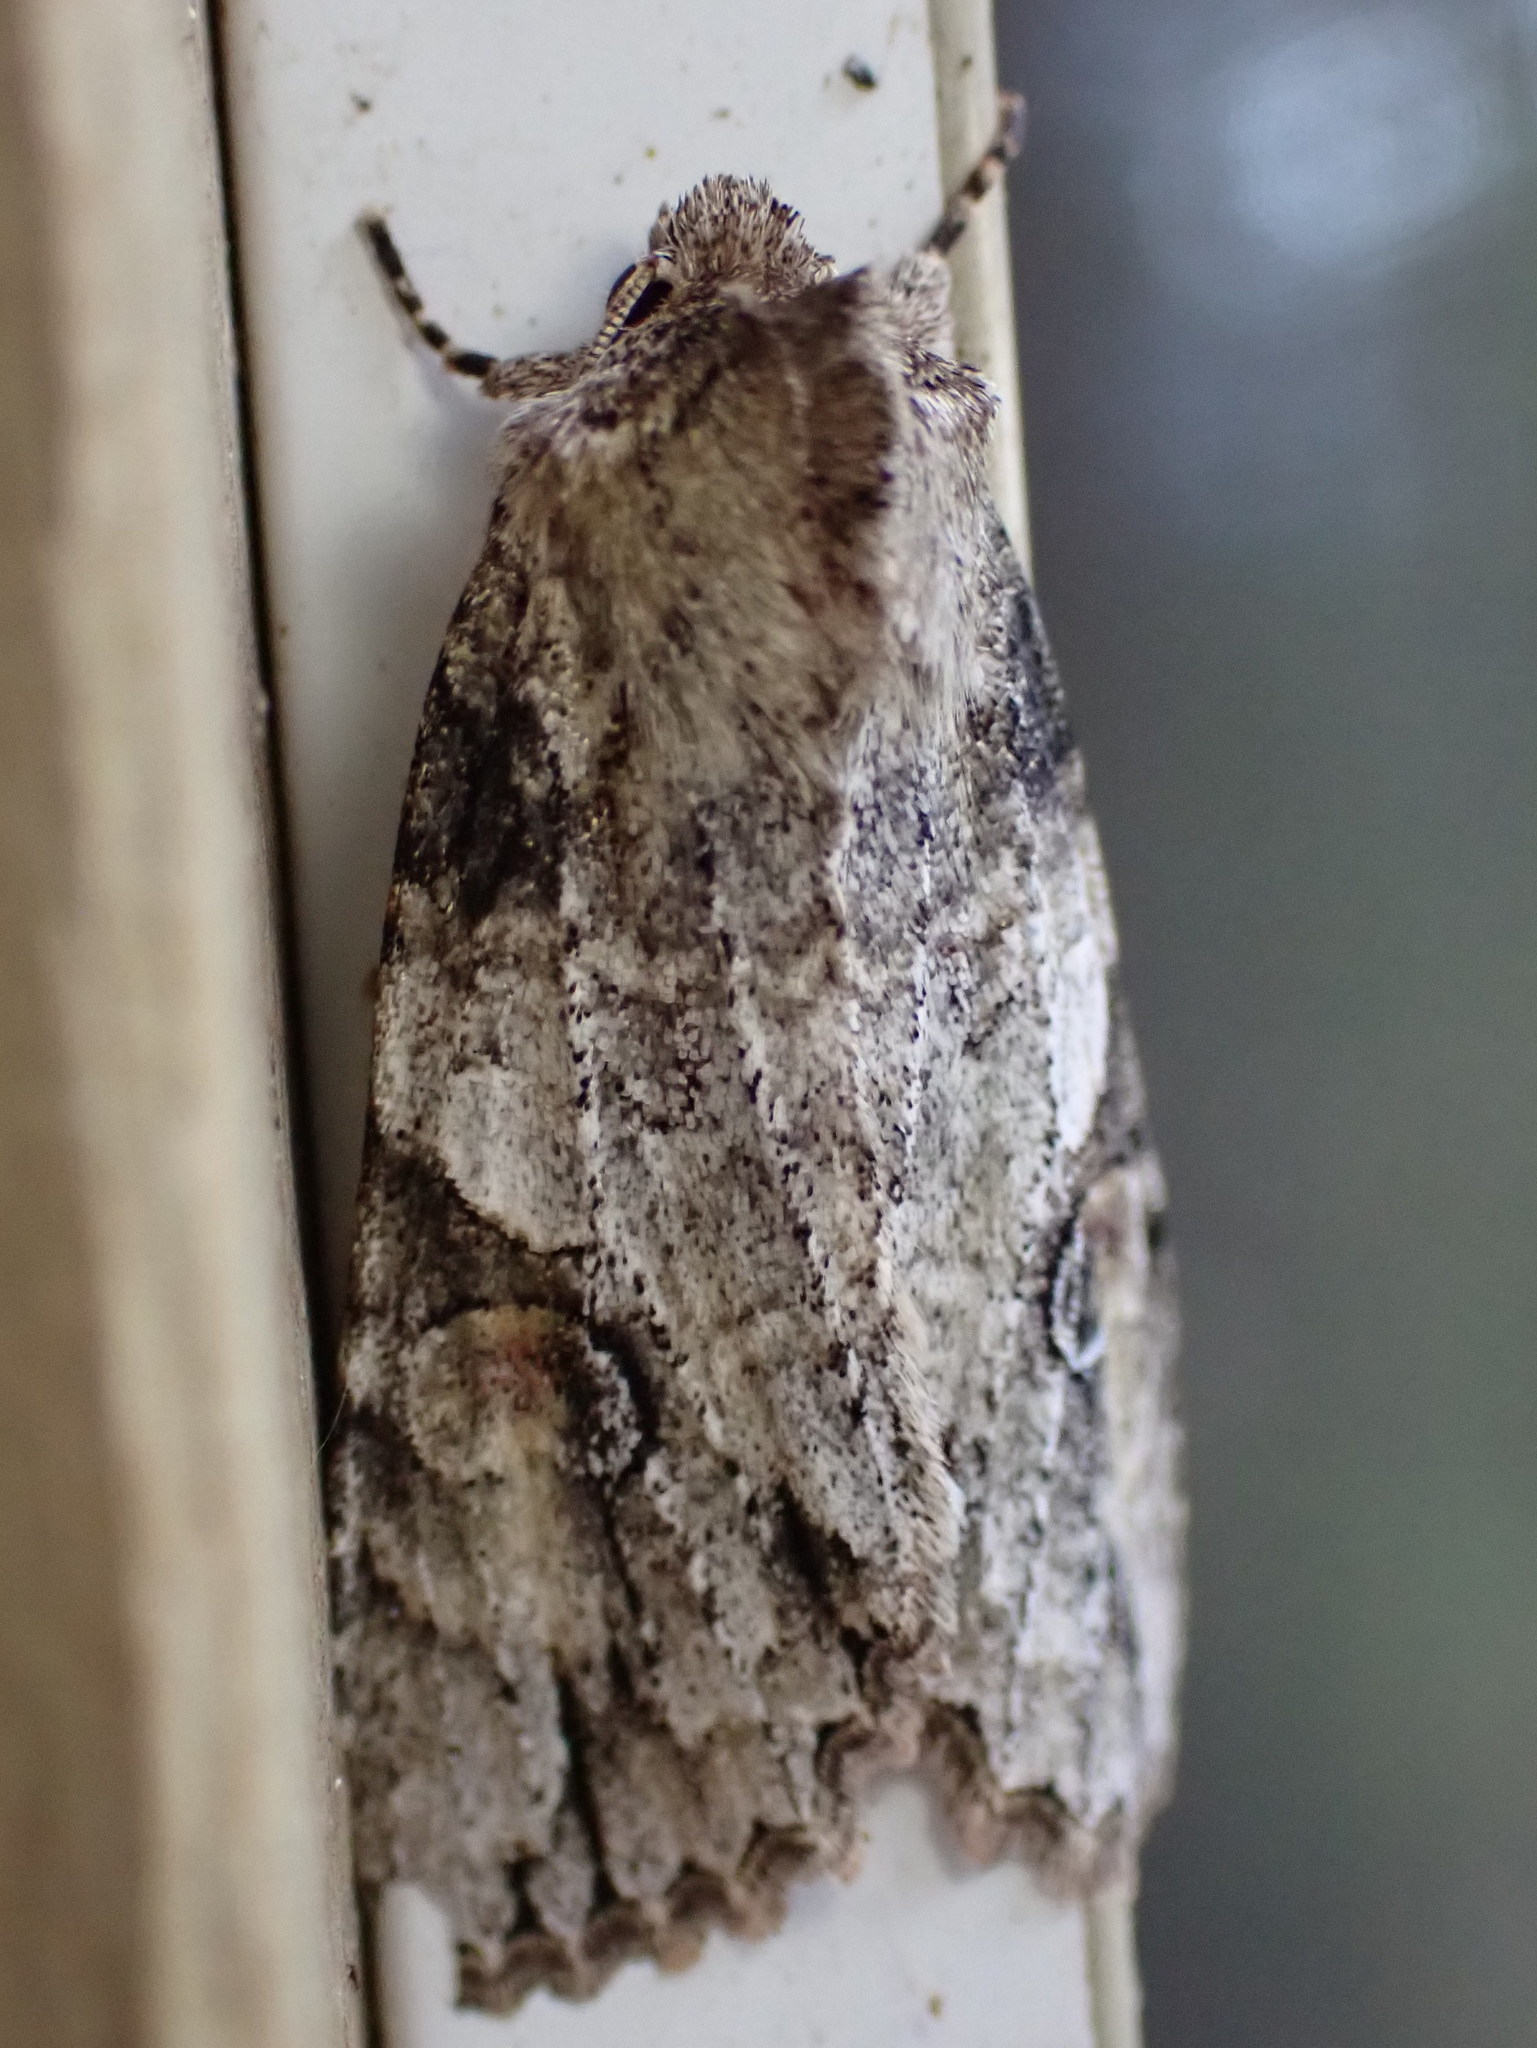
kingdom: Animalia
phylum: Arthropoda
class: Insecta
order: Lepidoptera
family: Noctuidae
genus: Achatia
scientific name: Achatia latex
